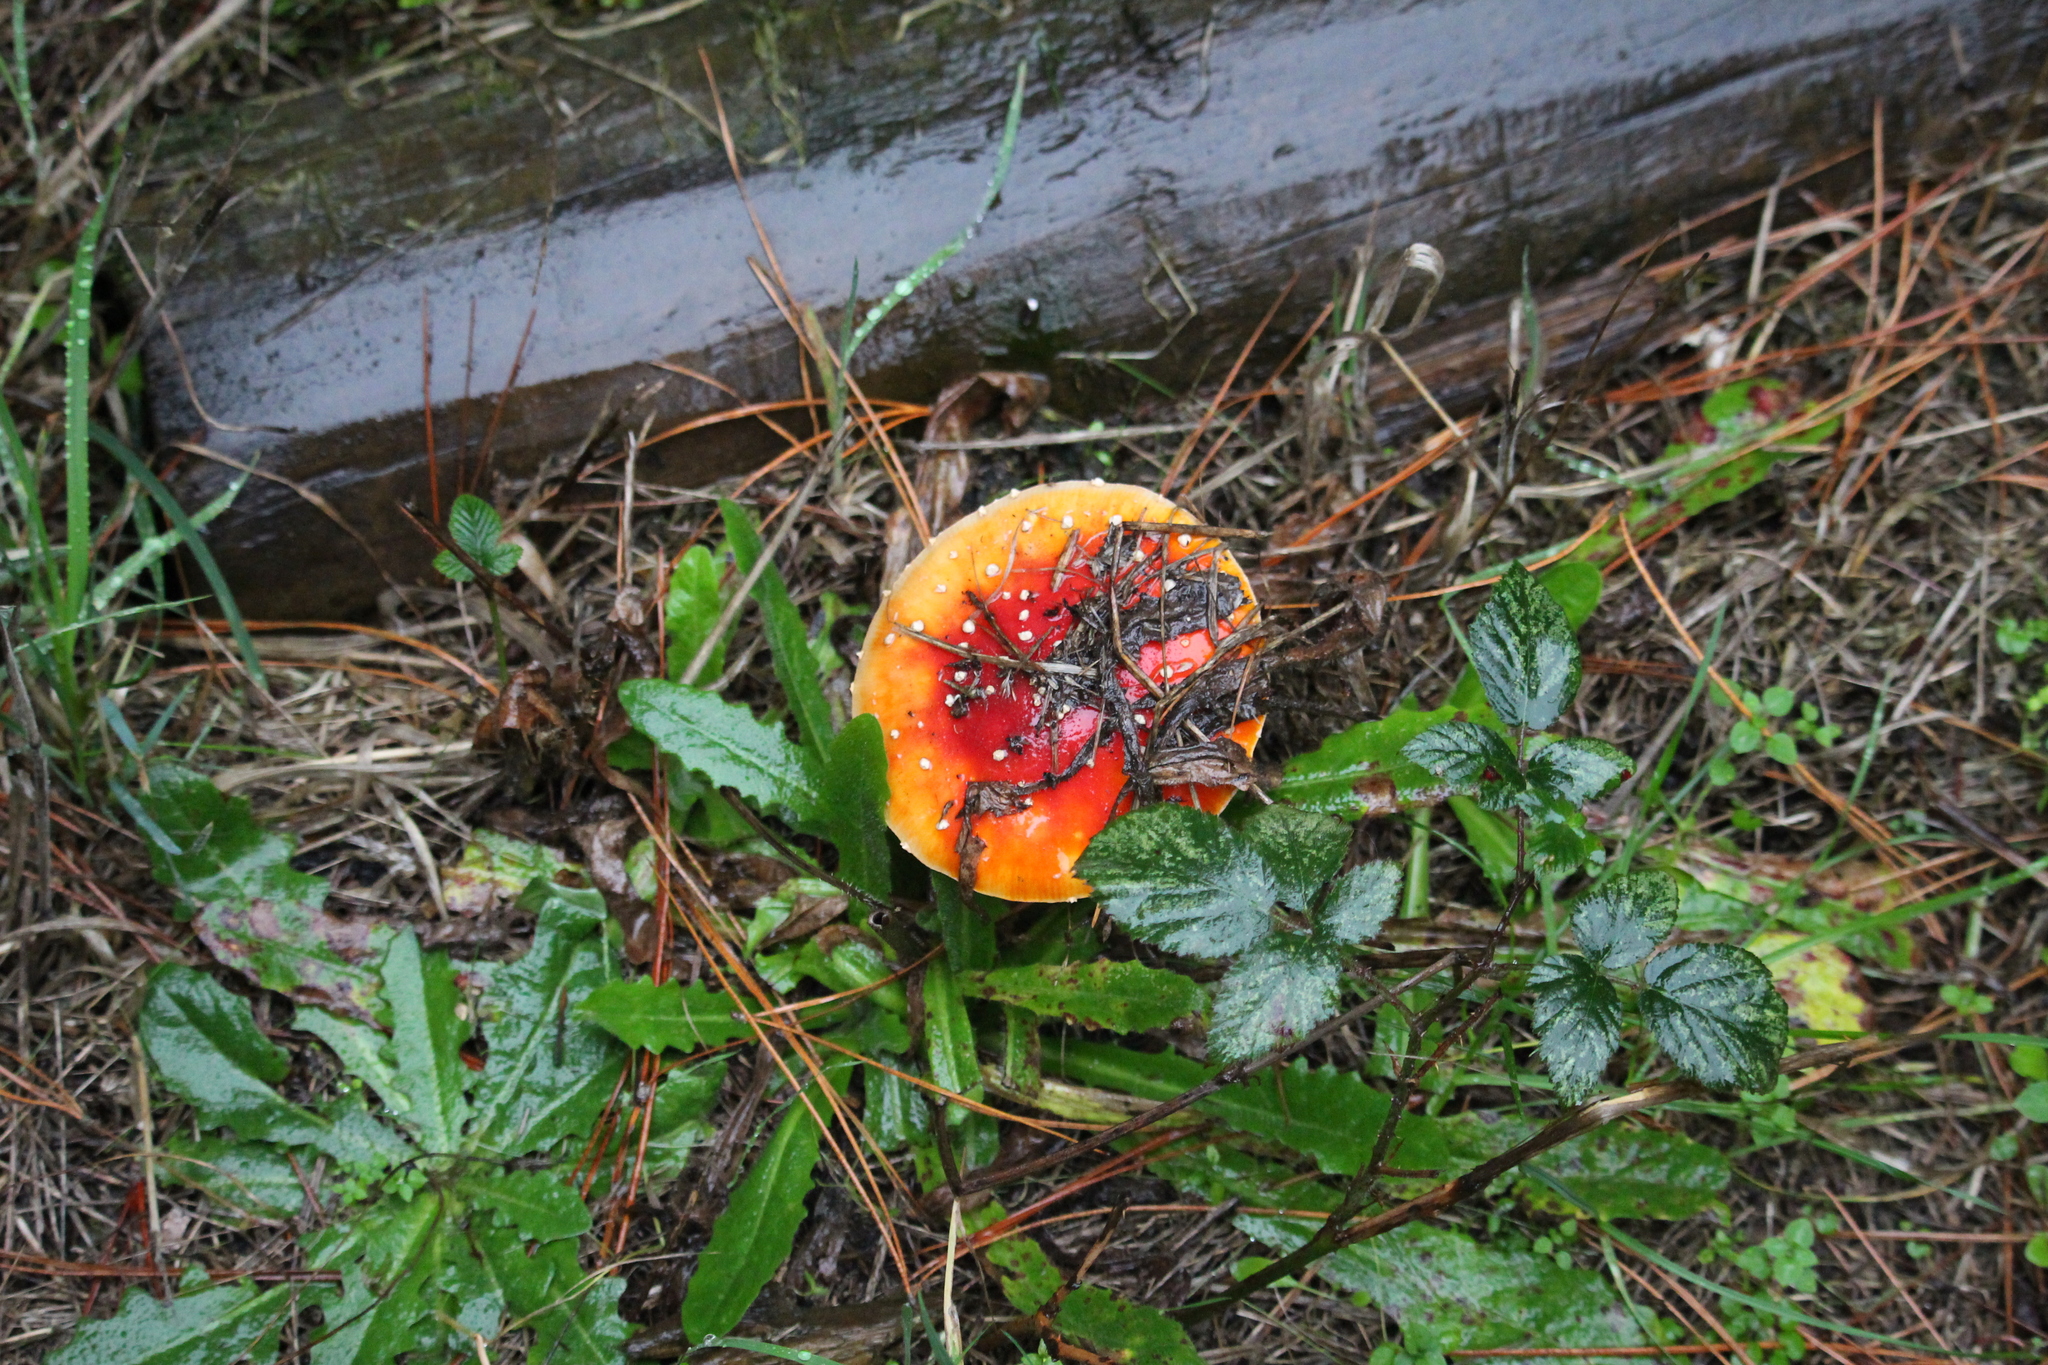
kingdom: Fungi
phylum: Basidiomycota
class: Agaricomycetes
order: Agaricales
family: Amanitaceae
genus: Amanita
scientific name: Amanita muscaria
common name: Fly agaric
